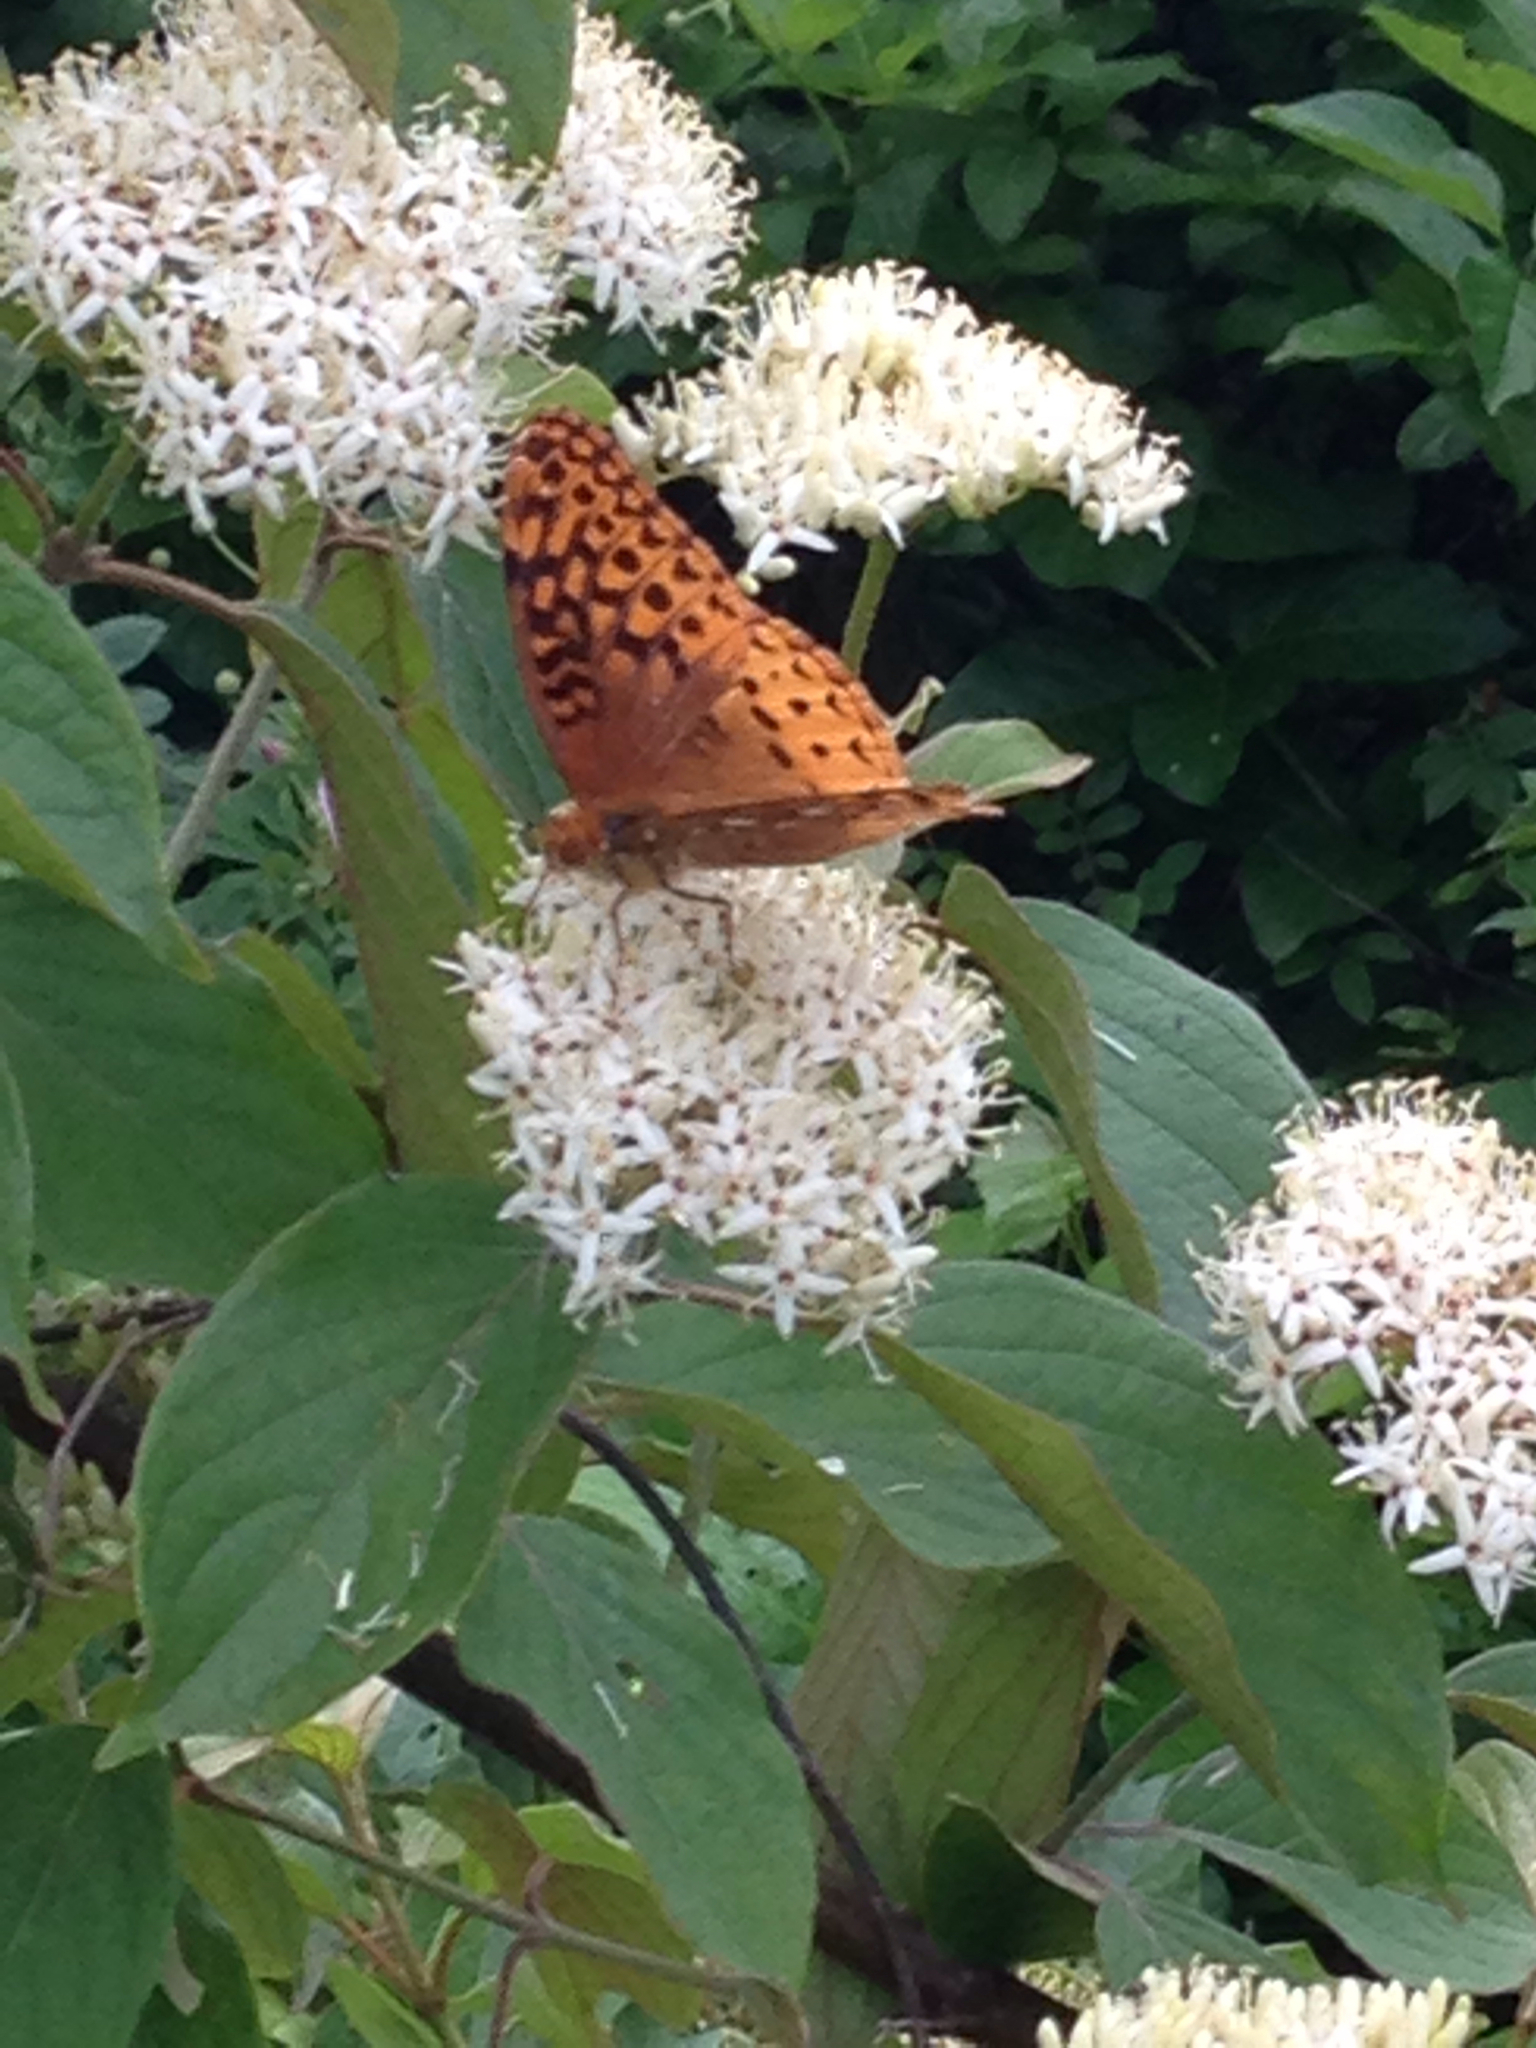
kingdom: Animalia
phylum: Arthropoda
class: Insecta
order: Lepidoptera
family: Nymphalidae
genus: Speyeria
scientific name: Speyeria cybele
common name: Great spangled fritillary
